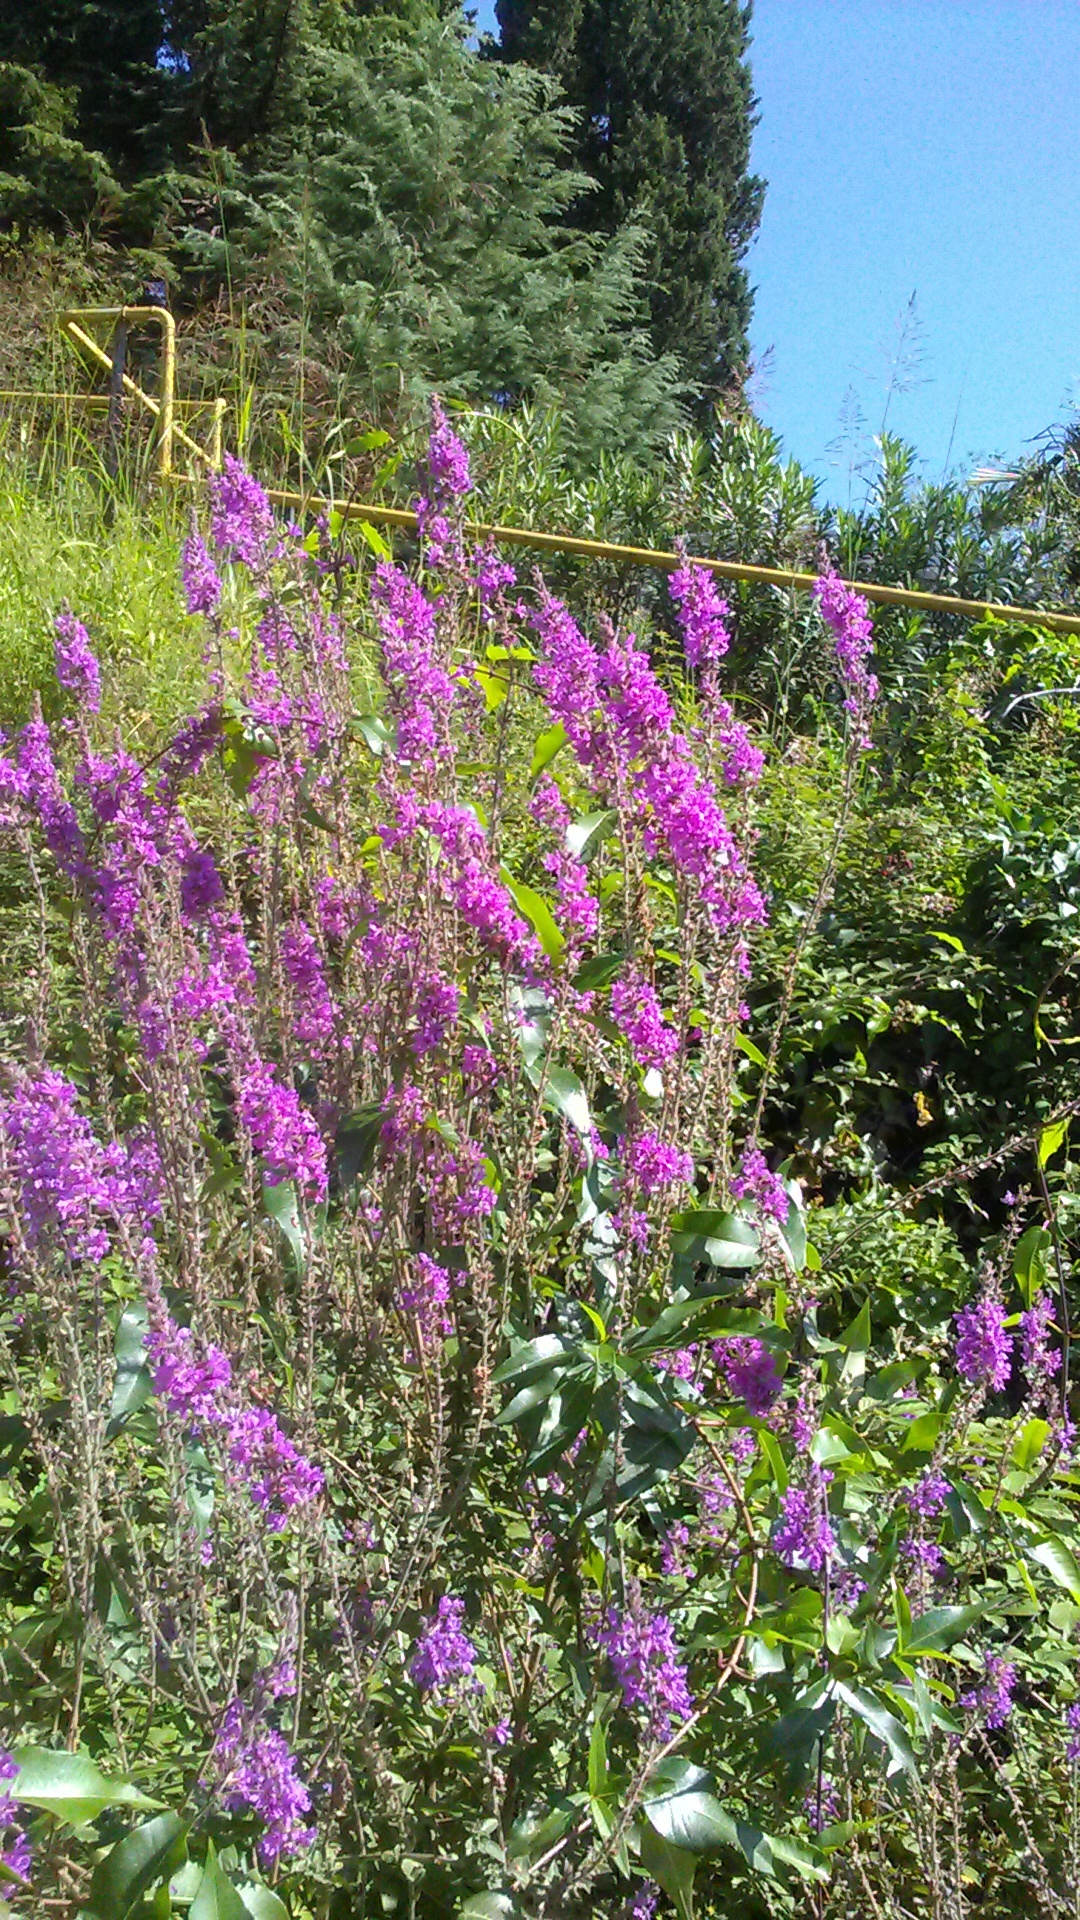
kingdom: Plantae
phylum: Tracheophyta
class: Magnoliopsida
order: Myrtales
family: Lythraceae
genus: Lythrum
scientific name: Lythrum salicaria
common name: Purple loosestrife
